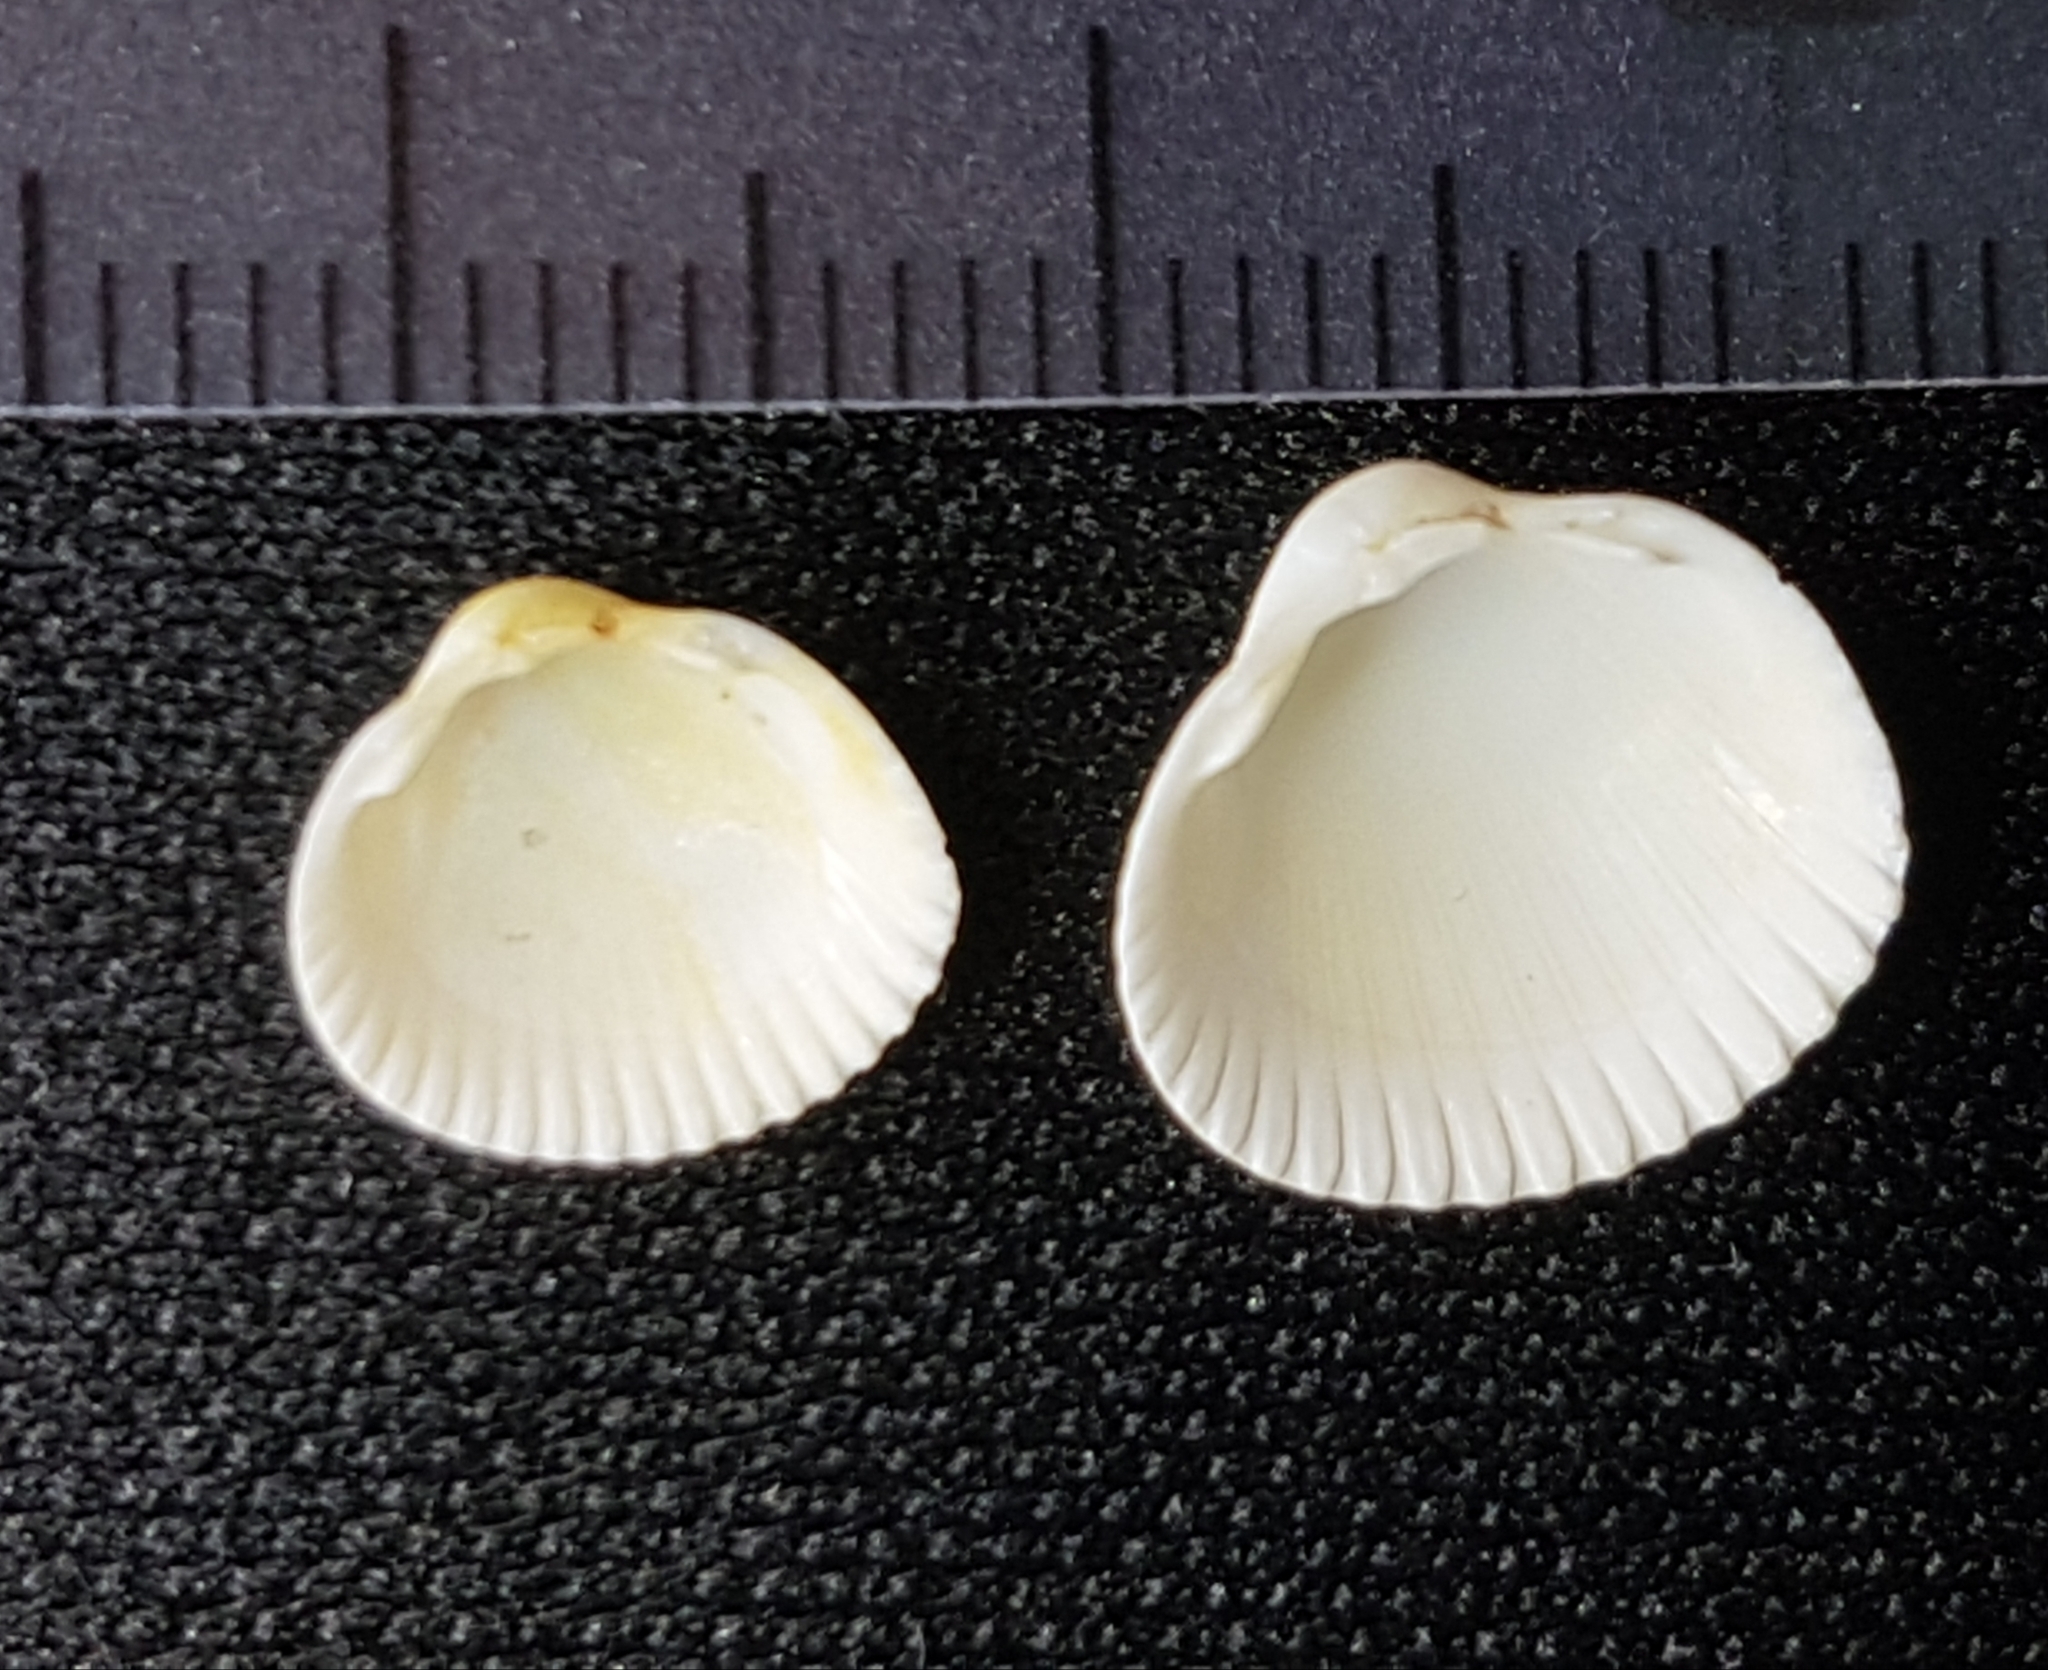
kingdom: Animalia
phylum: Mollusca
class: Bivalvia
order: Cardiida
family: Cardiidae
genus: Parvicardium
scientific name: Parvicardium pinnulatum
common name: Oval cockle
